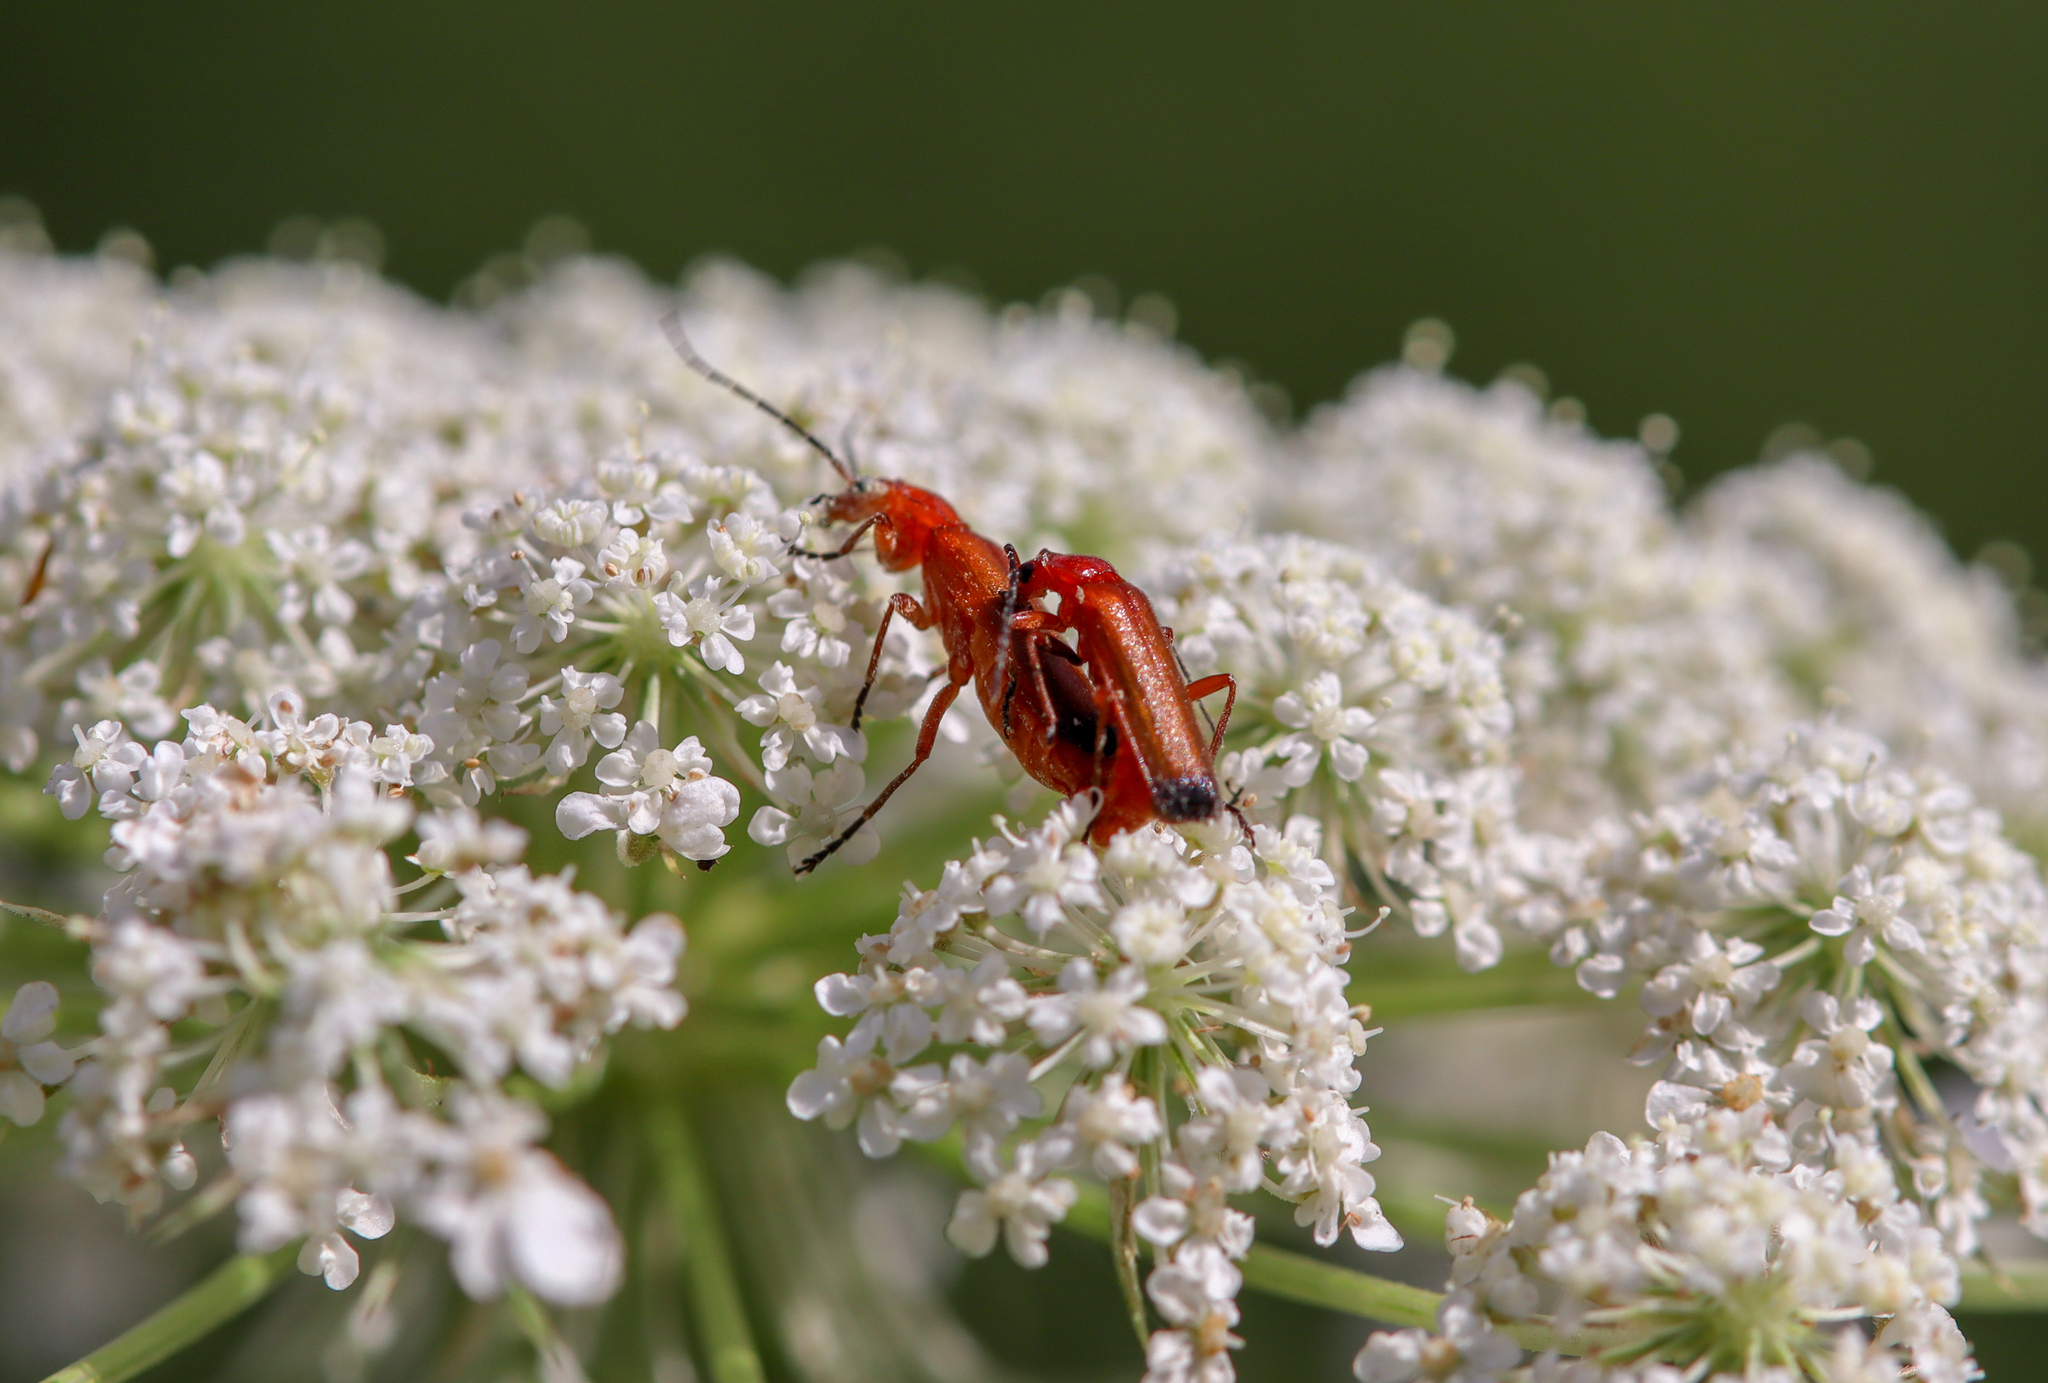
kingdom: Animalia
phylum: Arthropoda
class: Insecta
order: Coleoptera
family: Cantharidae
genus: Rhagonycha
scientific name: Rhagonycha fulva
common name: Common red soldier beetle
